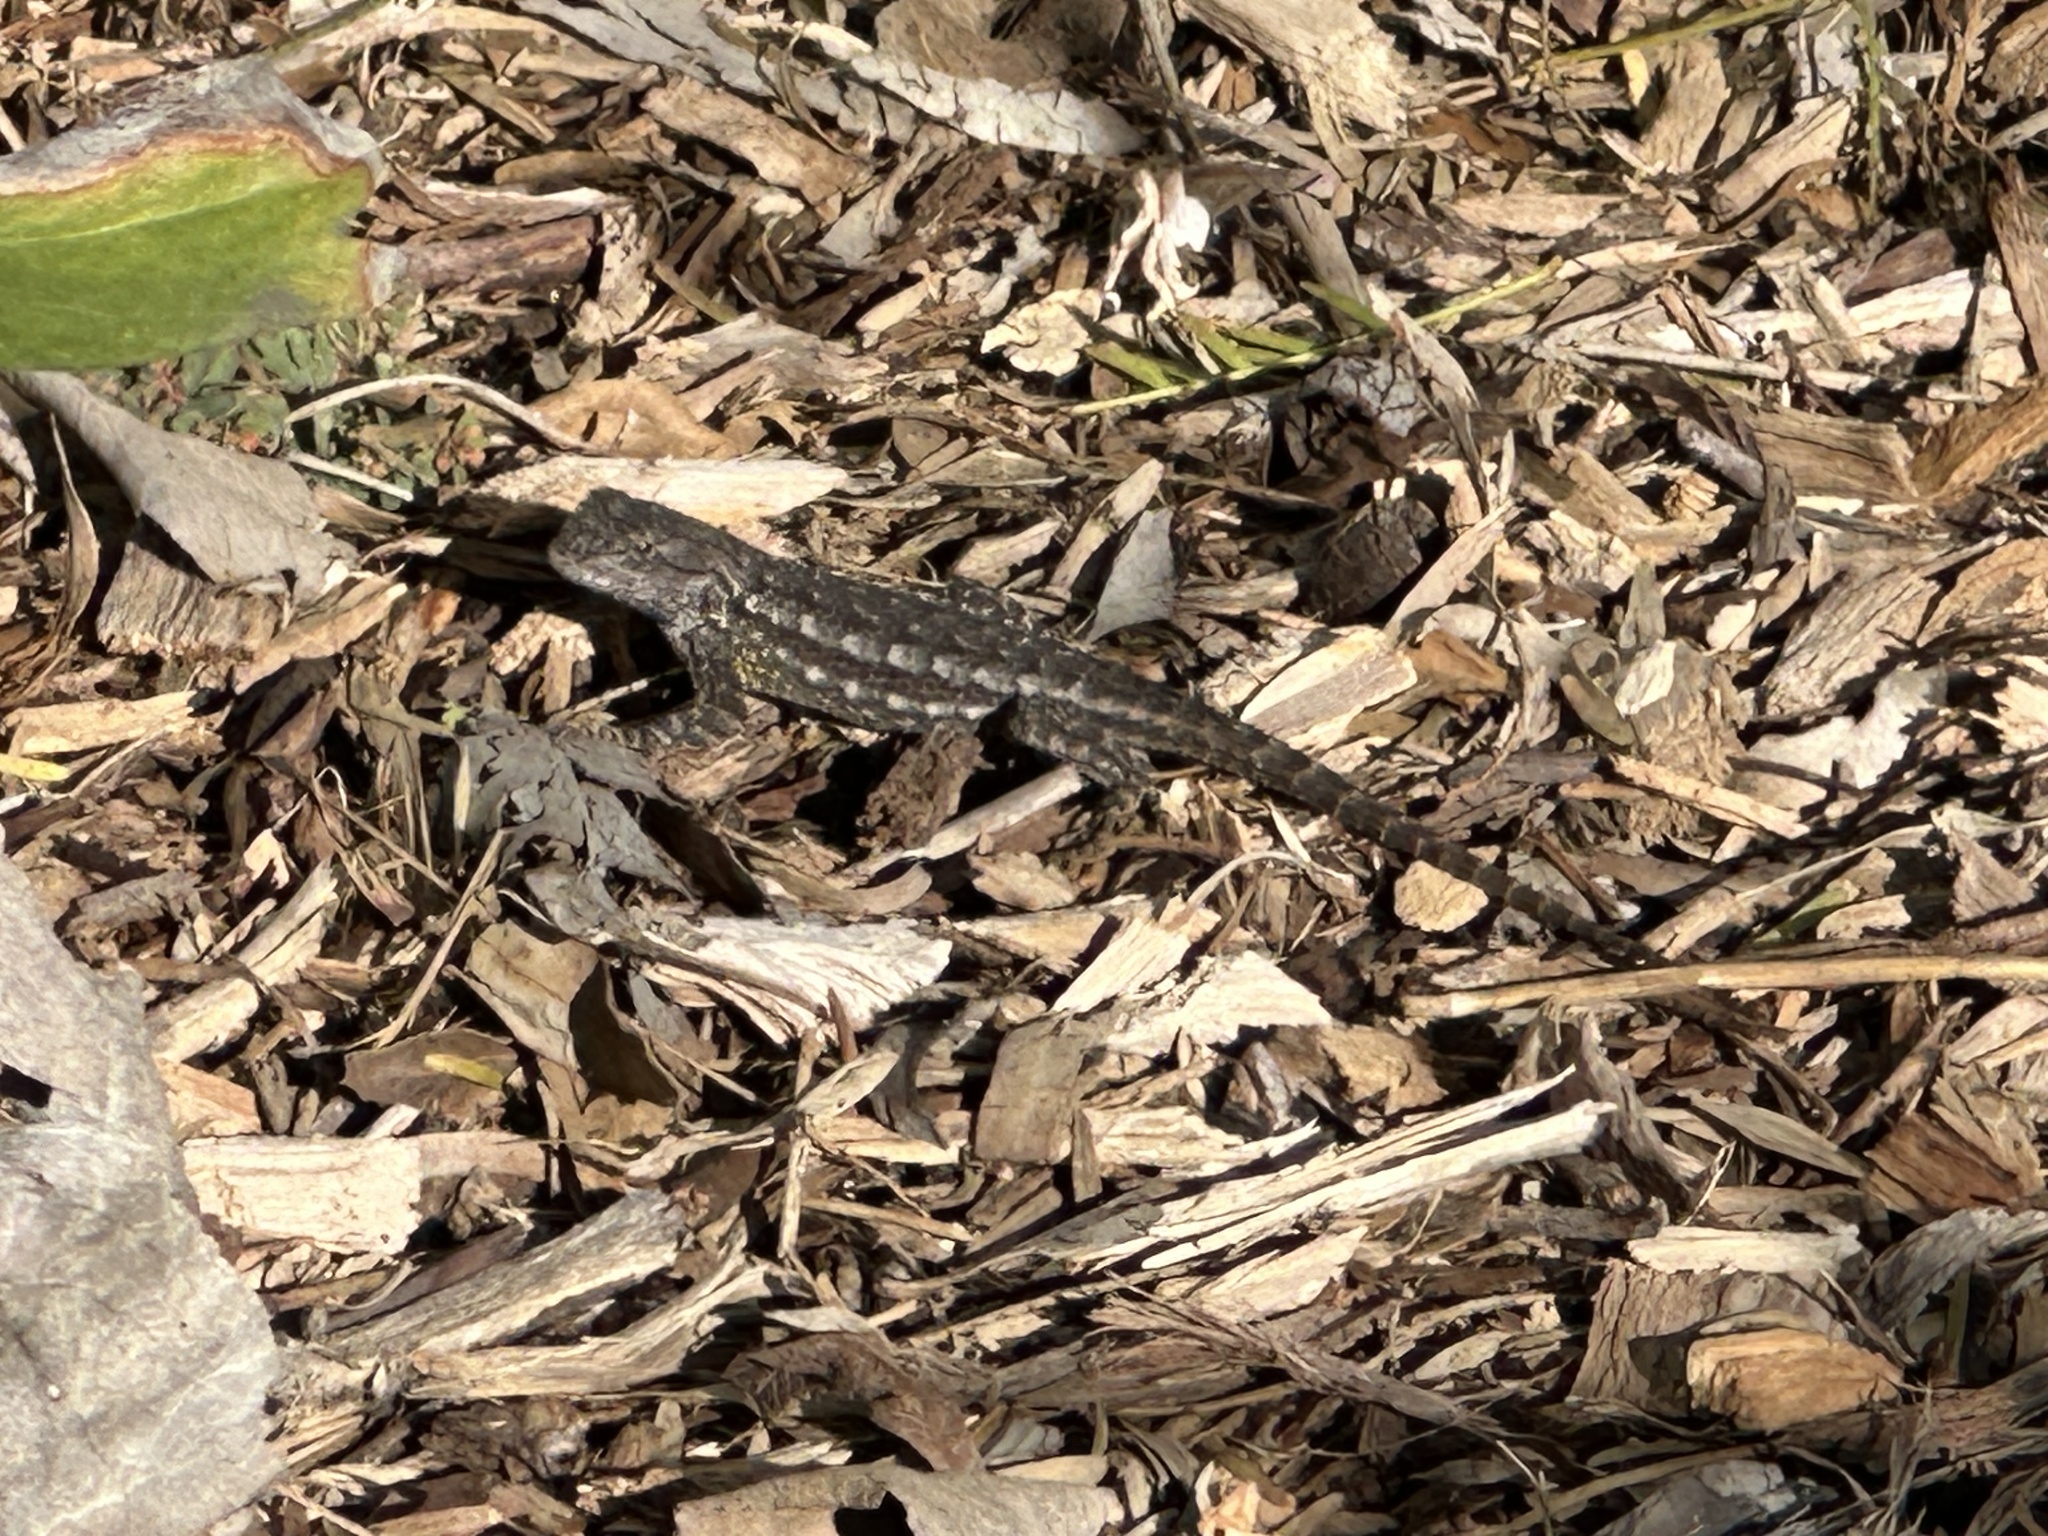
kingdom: Animalia
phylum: Chordata
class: Squamata
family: Phrynosomatidae
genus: Sceloporus
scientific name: Sceloporus occidentalis
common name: Western fence lizard
